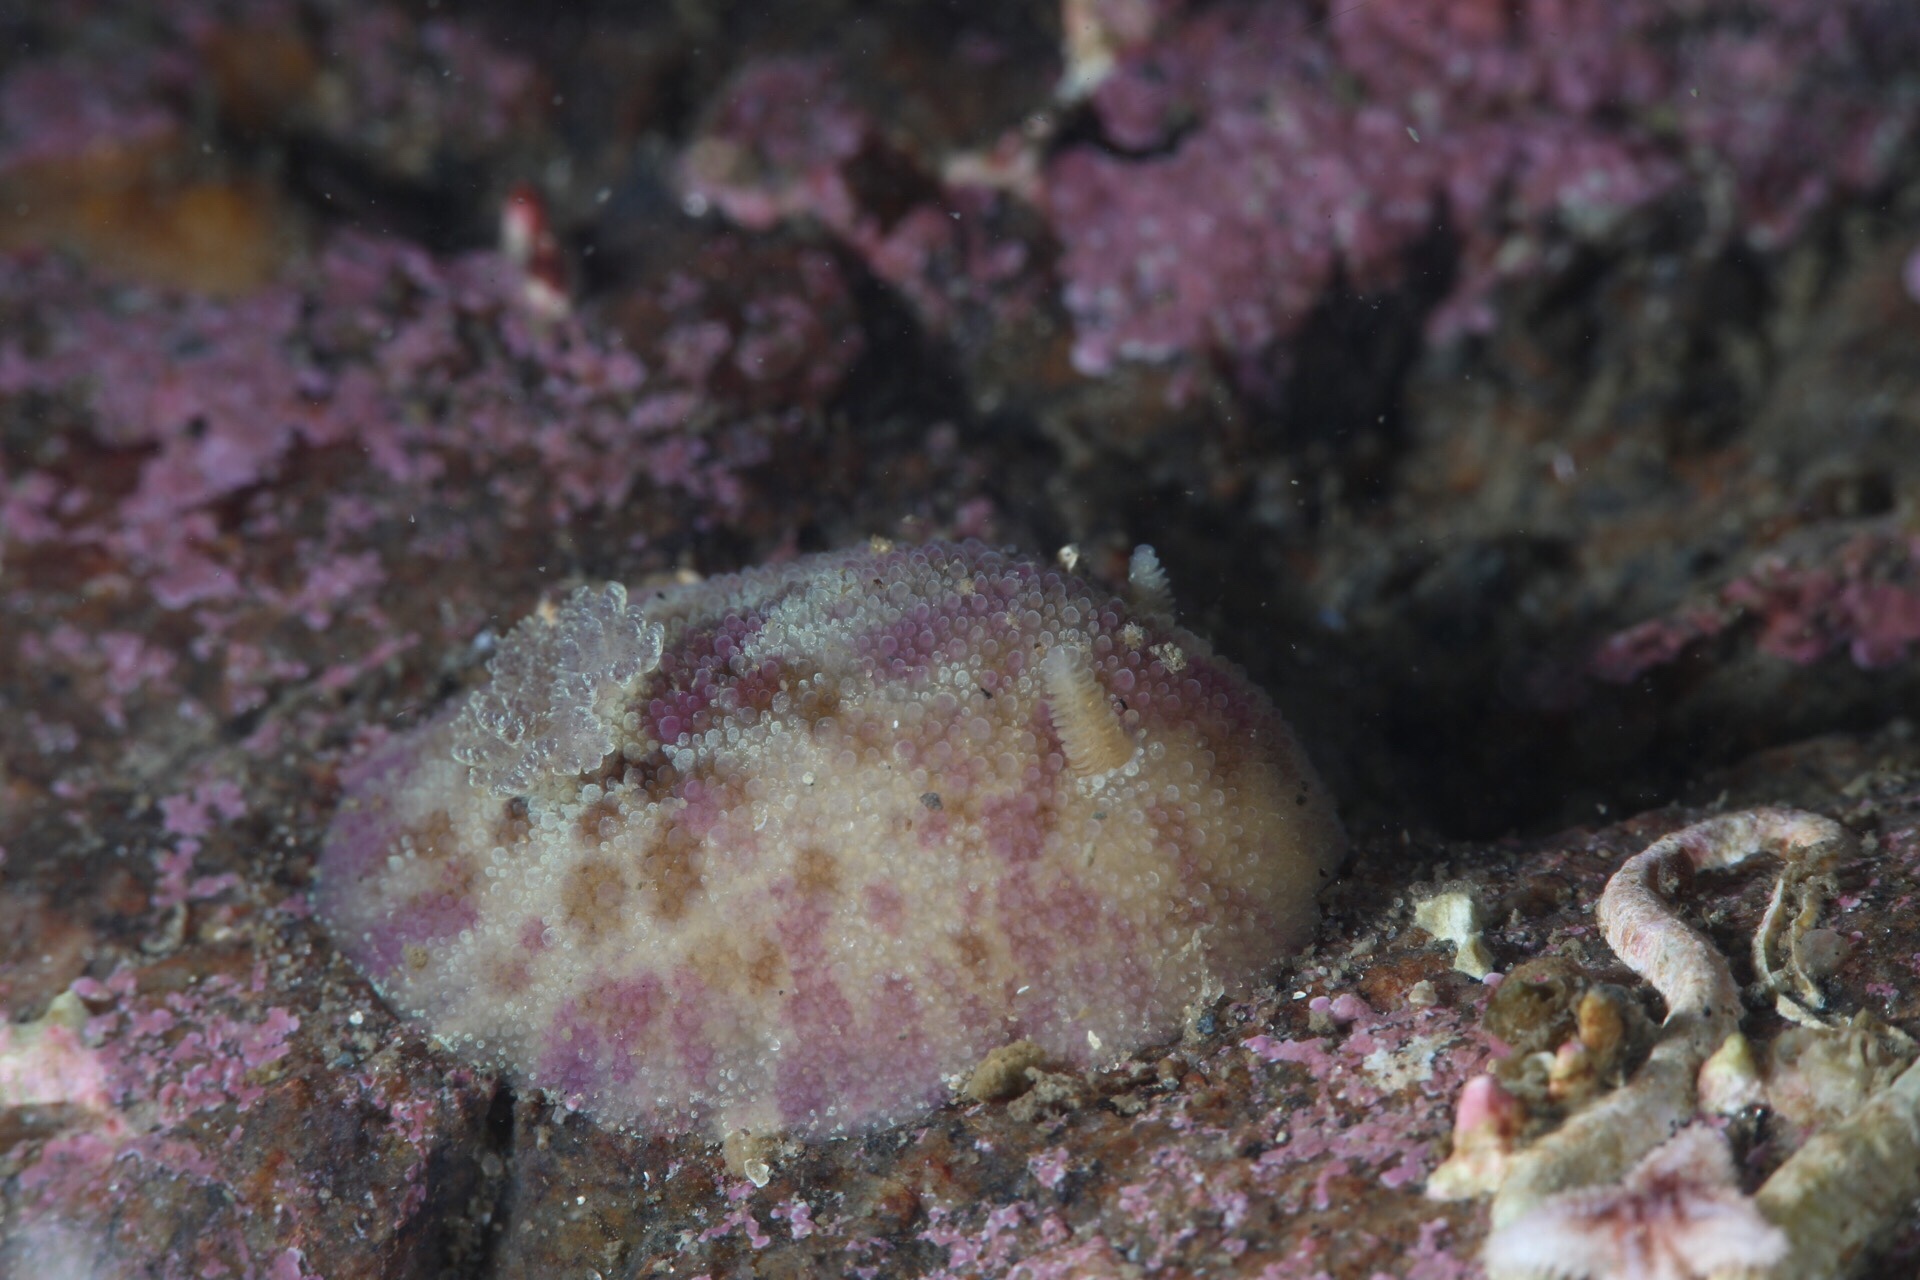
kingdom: Animalia
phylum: Mollusca
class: Gastropoda
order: Nudibranchia
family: Dorididae
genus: Doris
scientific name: Doris pseudoargus
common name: Sea lemon
